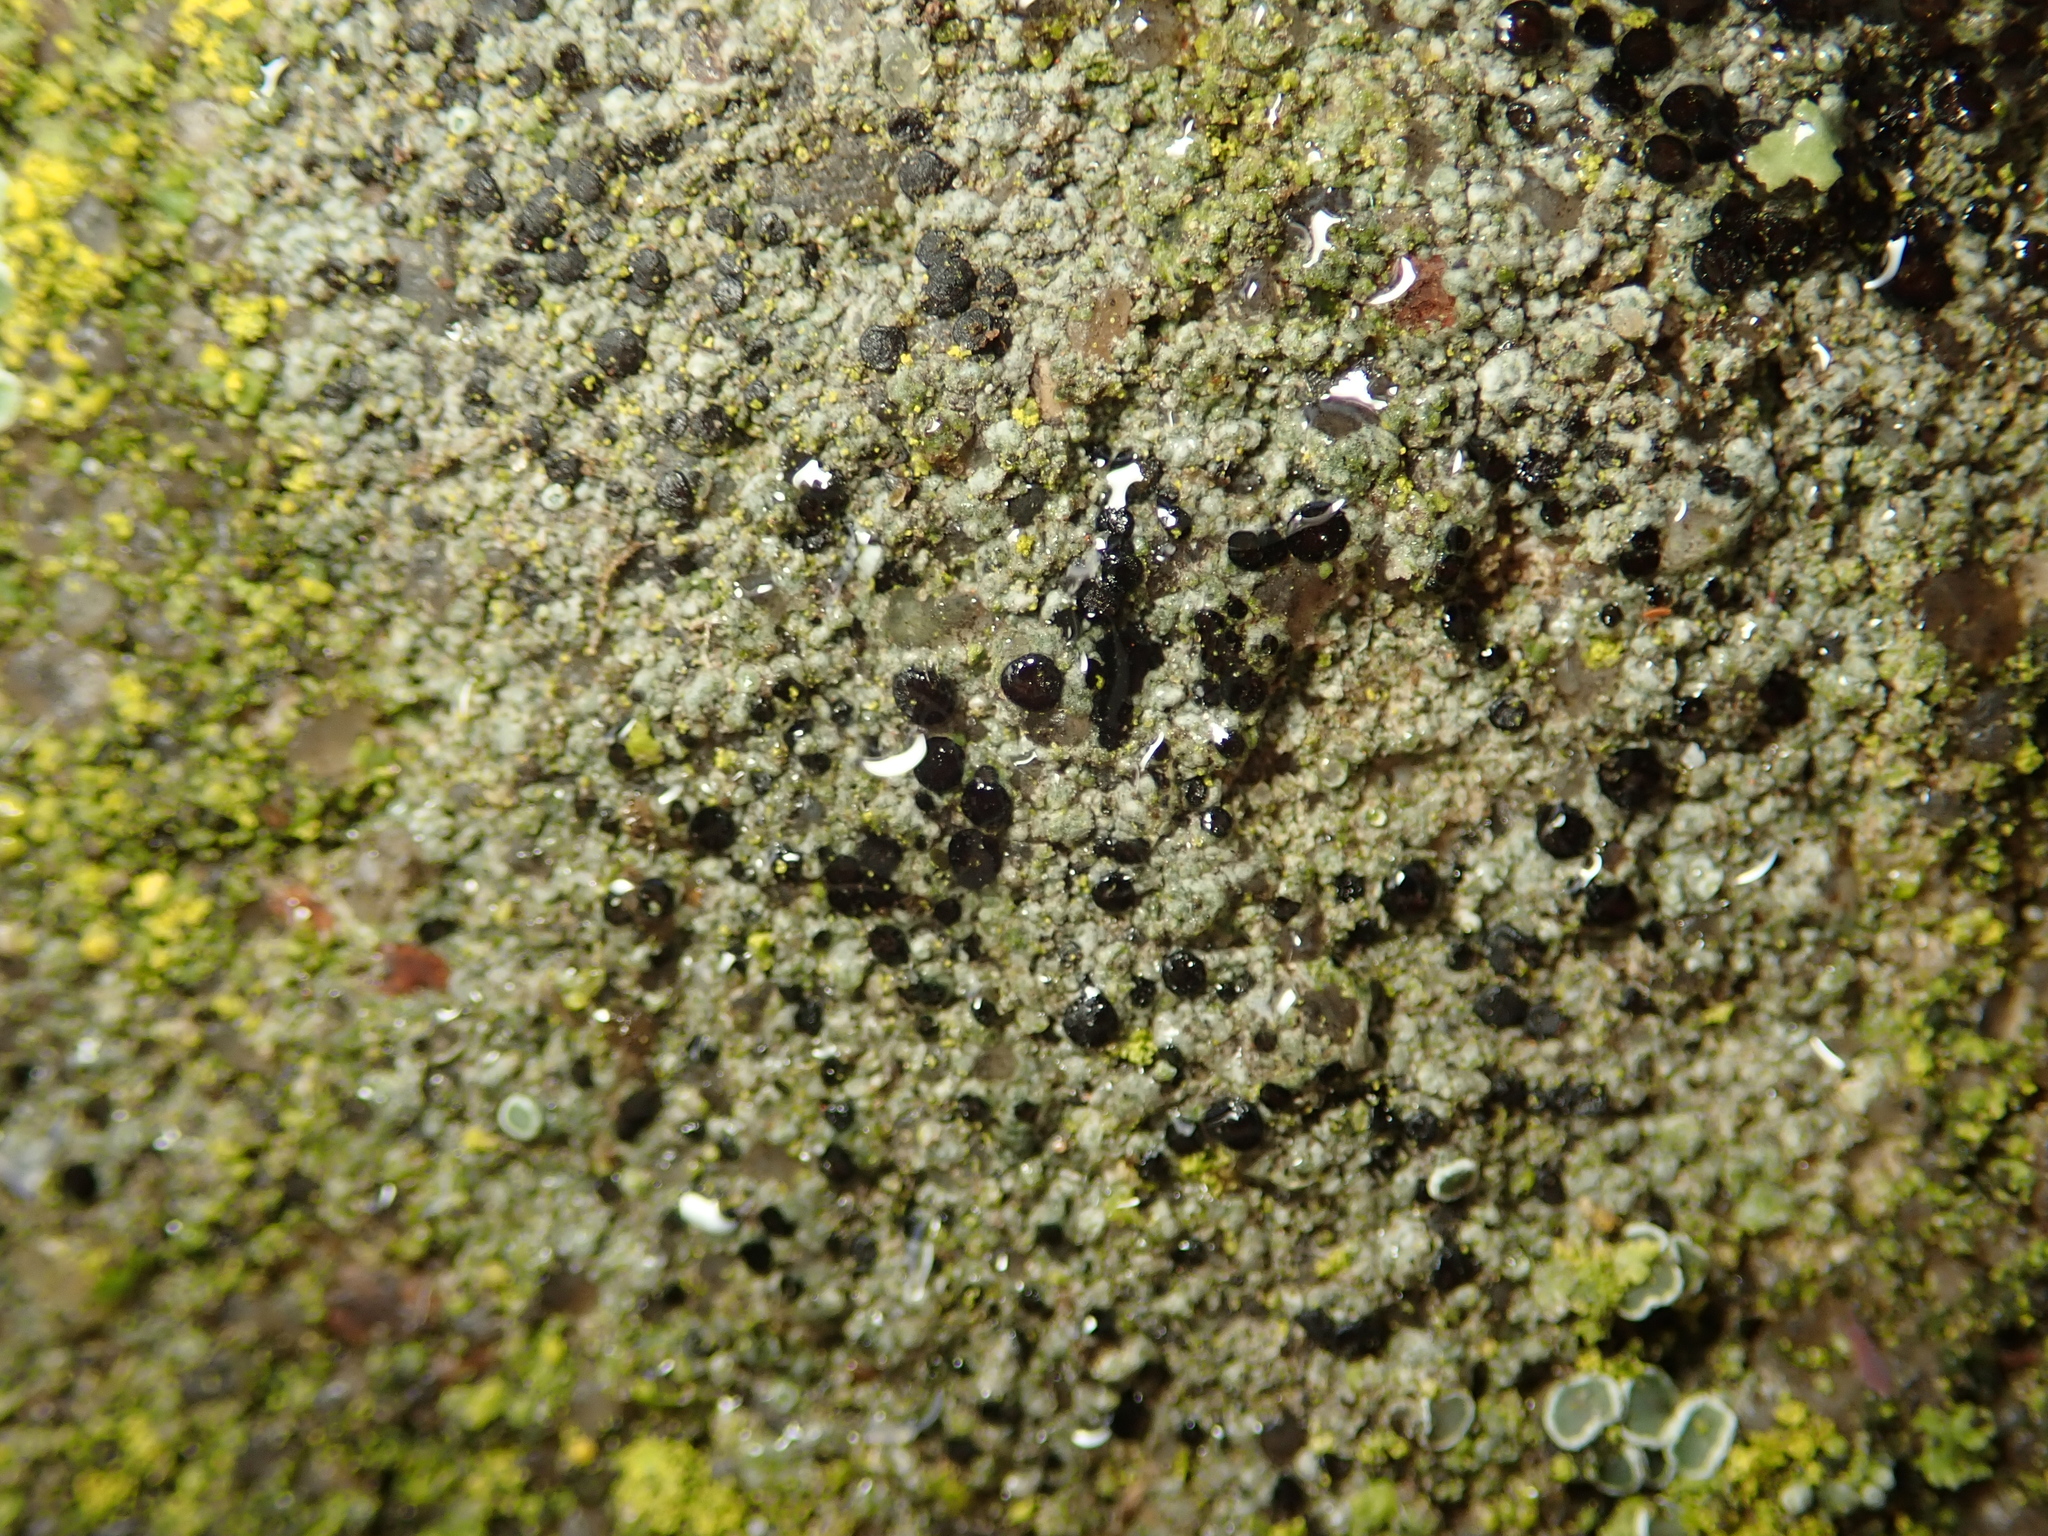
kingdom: Fungi
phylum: Ascomycota
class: Lecanoromycetes
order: Lecanorales
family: Lecanoraceae
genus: Lecidella
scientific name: Lecidella stigmatea
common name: Limestone disc lichen
